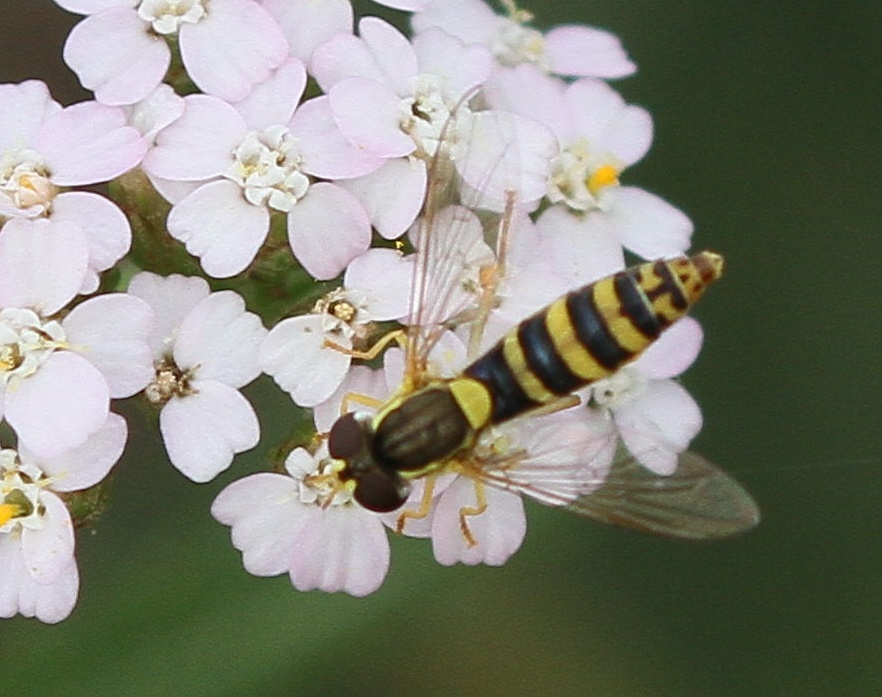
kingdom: Animalia
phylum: Arthropoda
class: Insecta
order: Diptera
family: Syrphidae
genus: Sphaerophoria
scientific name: Sphaerophoria
